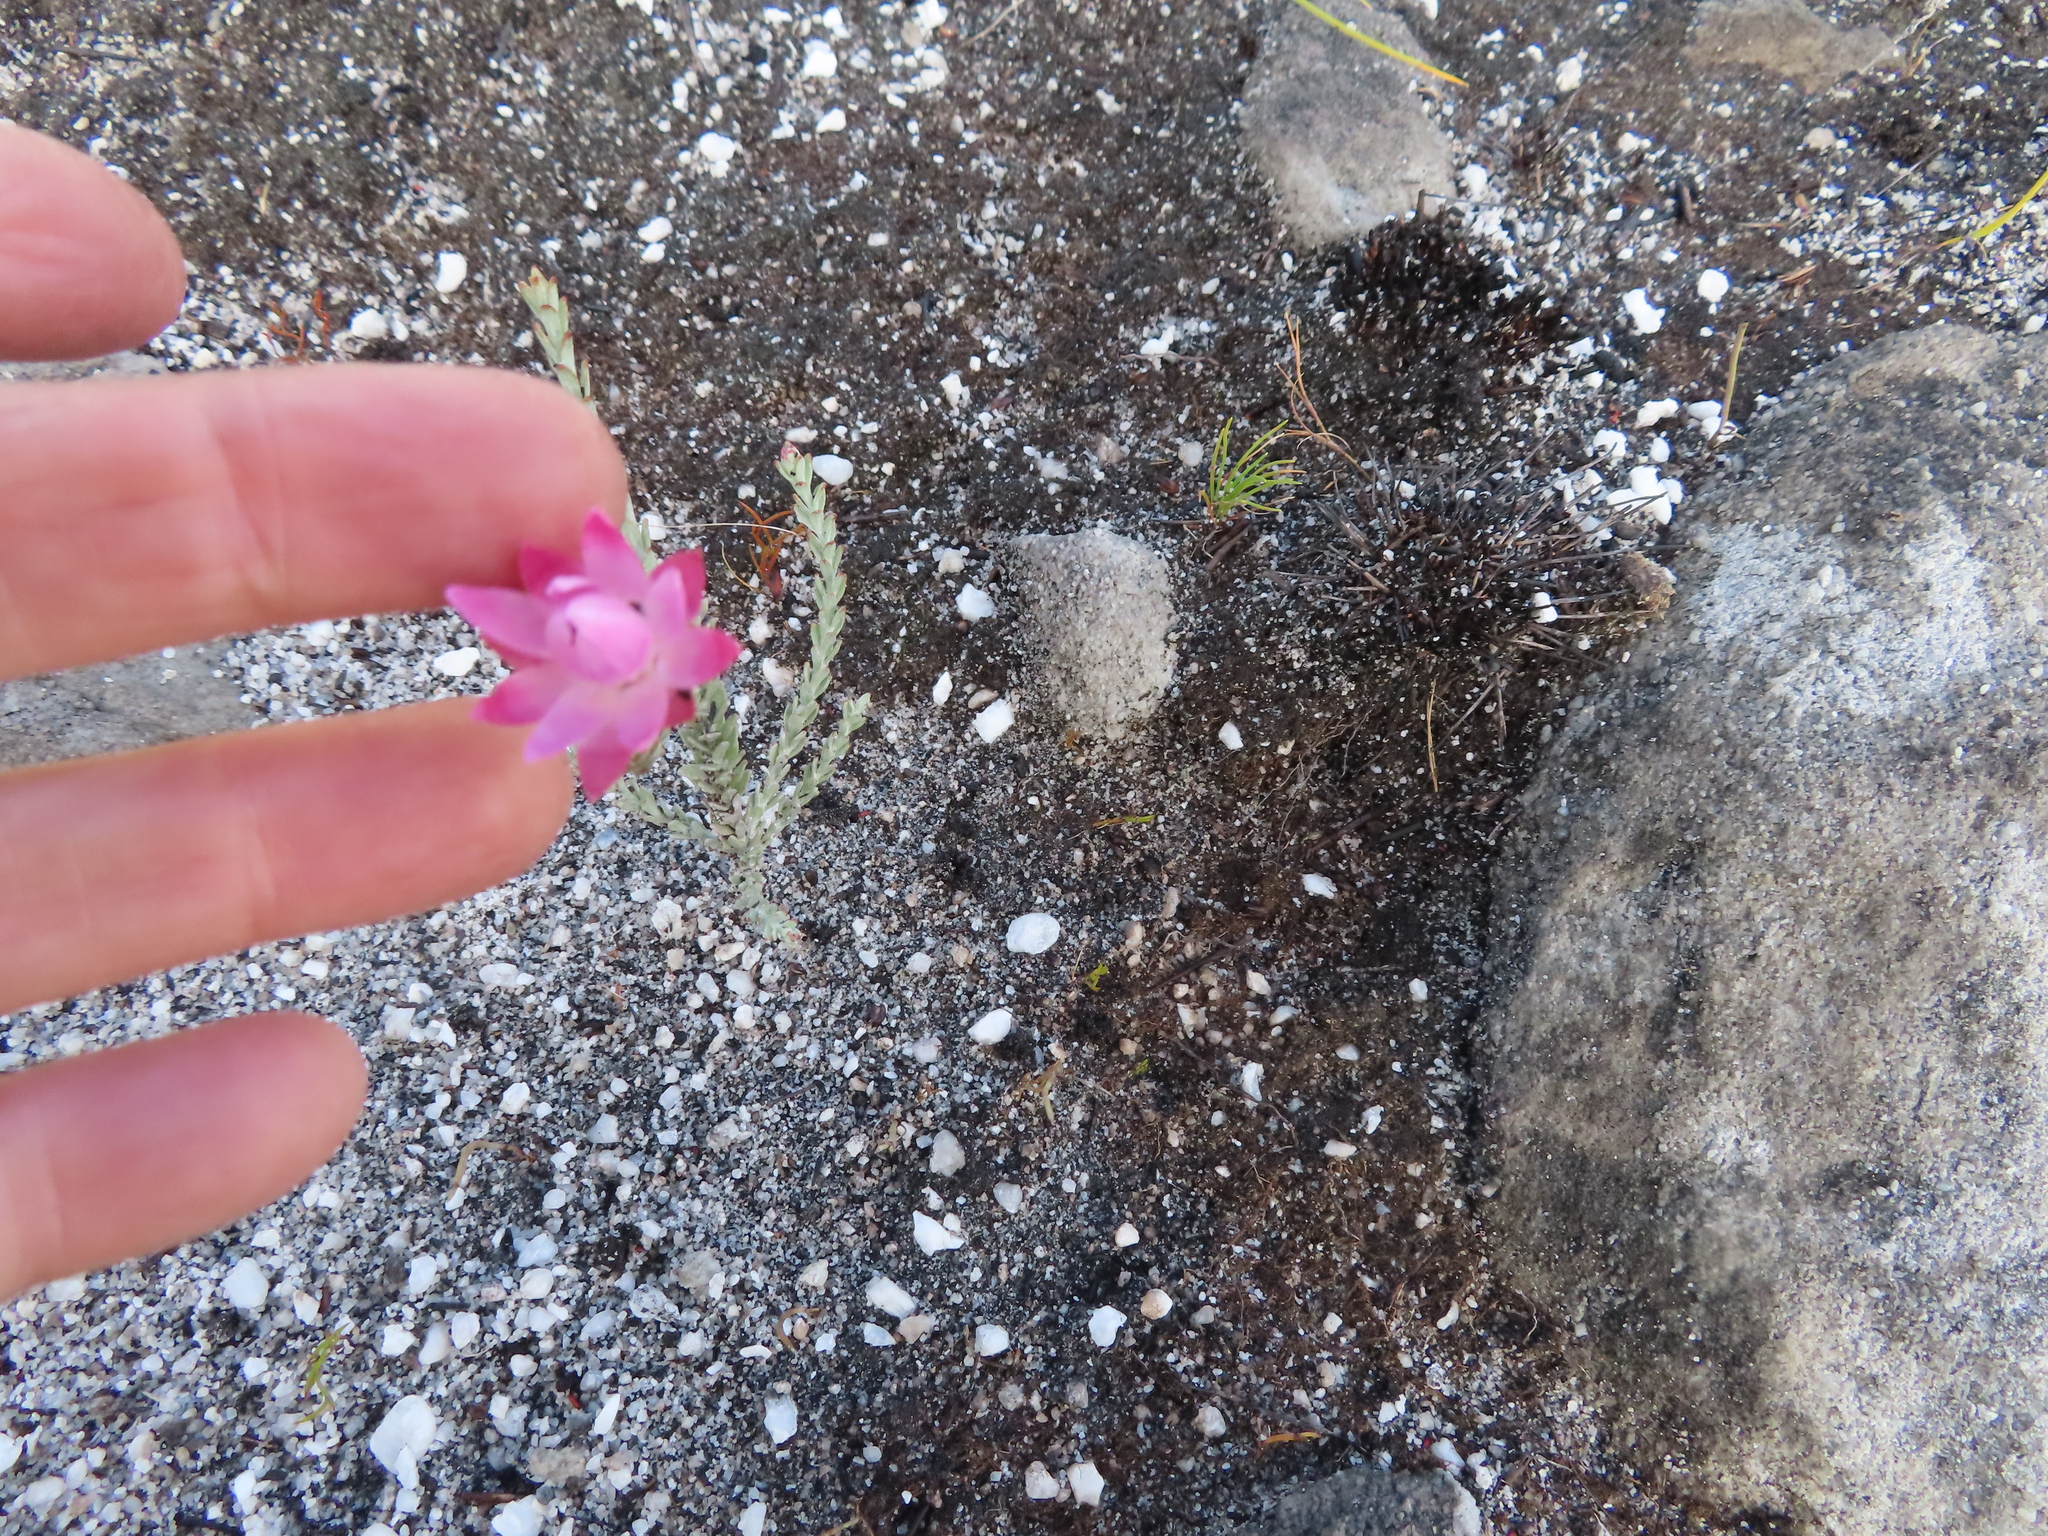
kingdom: Plantae
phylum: Tracheophyta
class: Magnoliopsida
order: Asterales
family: Asteraceae
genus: Syncarpha
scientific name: Syncarpha canescens
